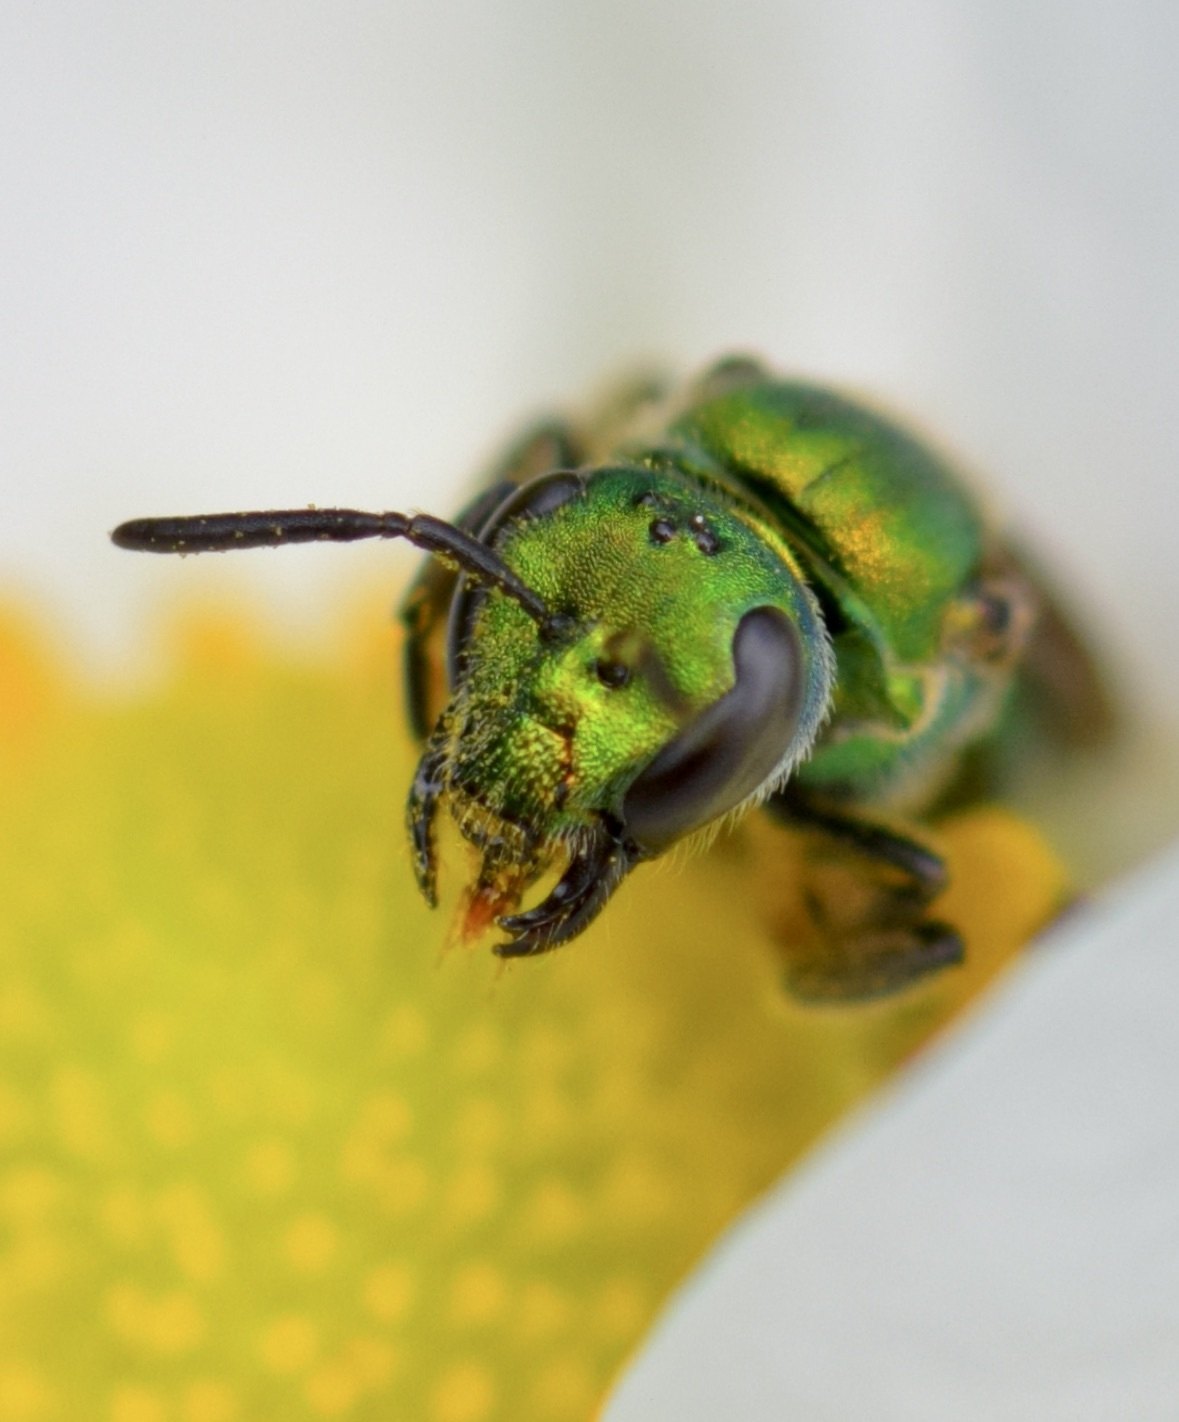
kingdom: Animalia
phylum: Arthropoda
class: Insecta
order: Hymenoptera
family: Halictidae
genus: Augochlora
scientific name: Augochlora pura
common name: Pure green sweat bee
